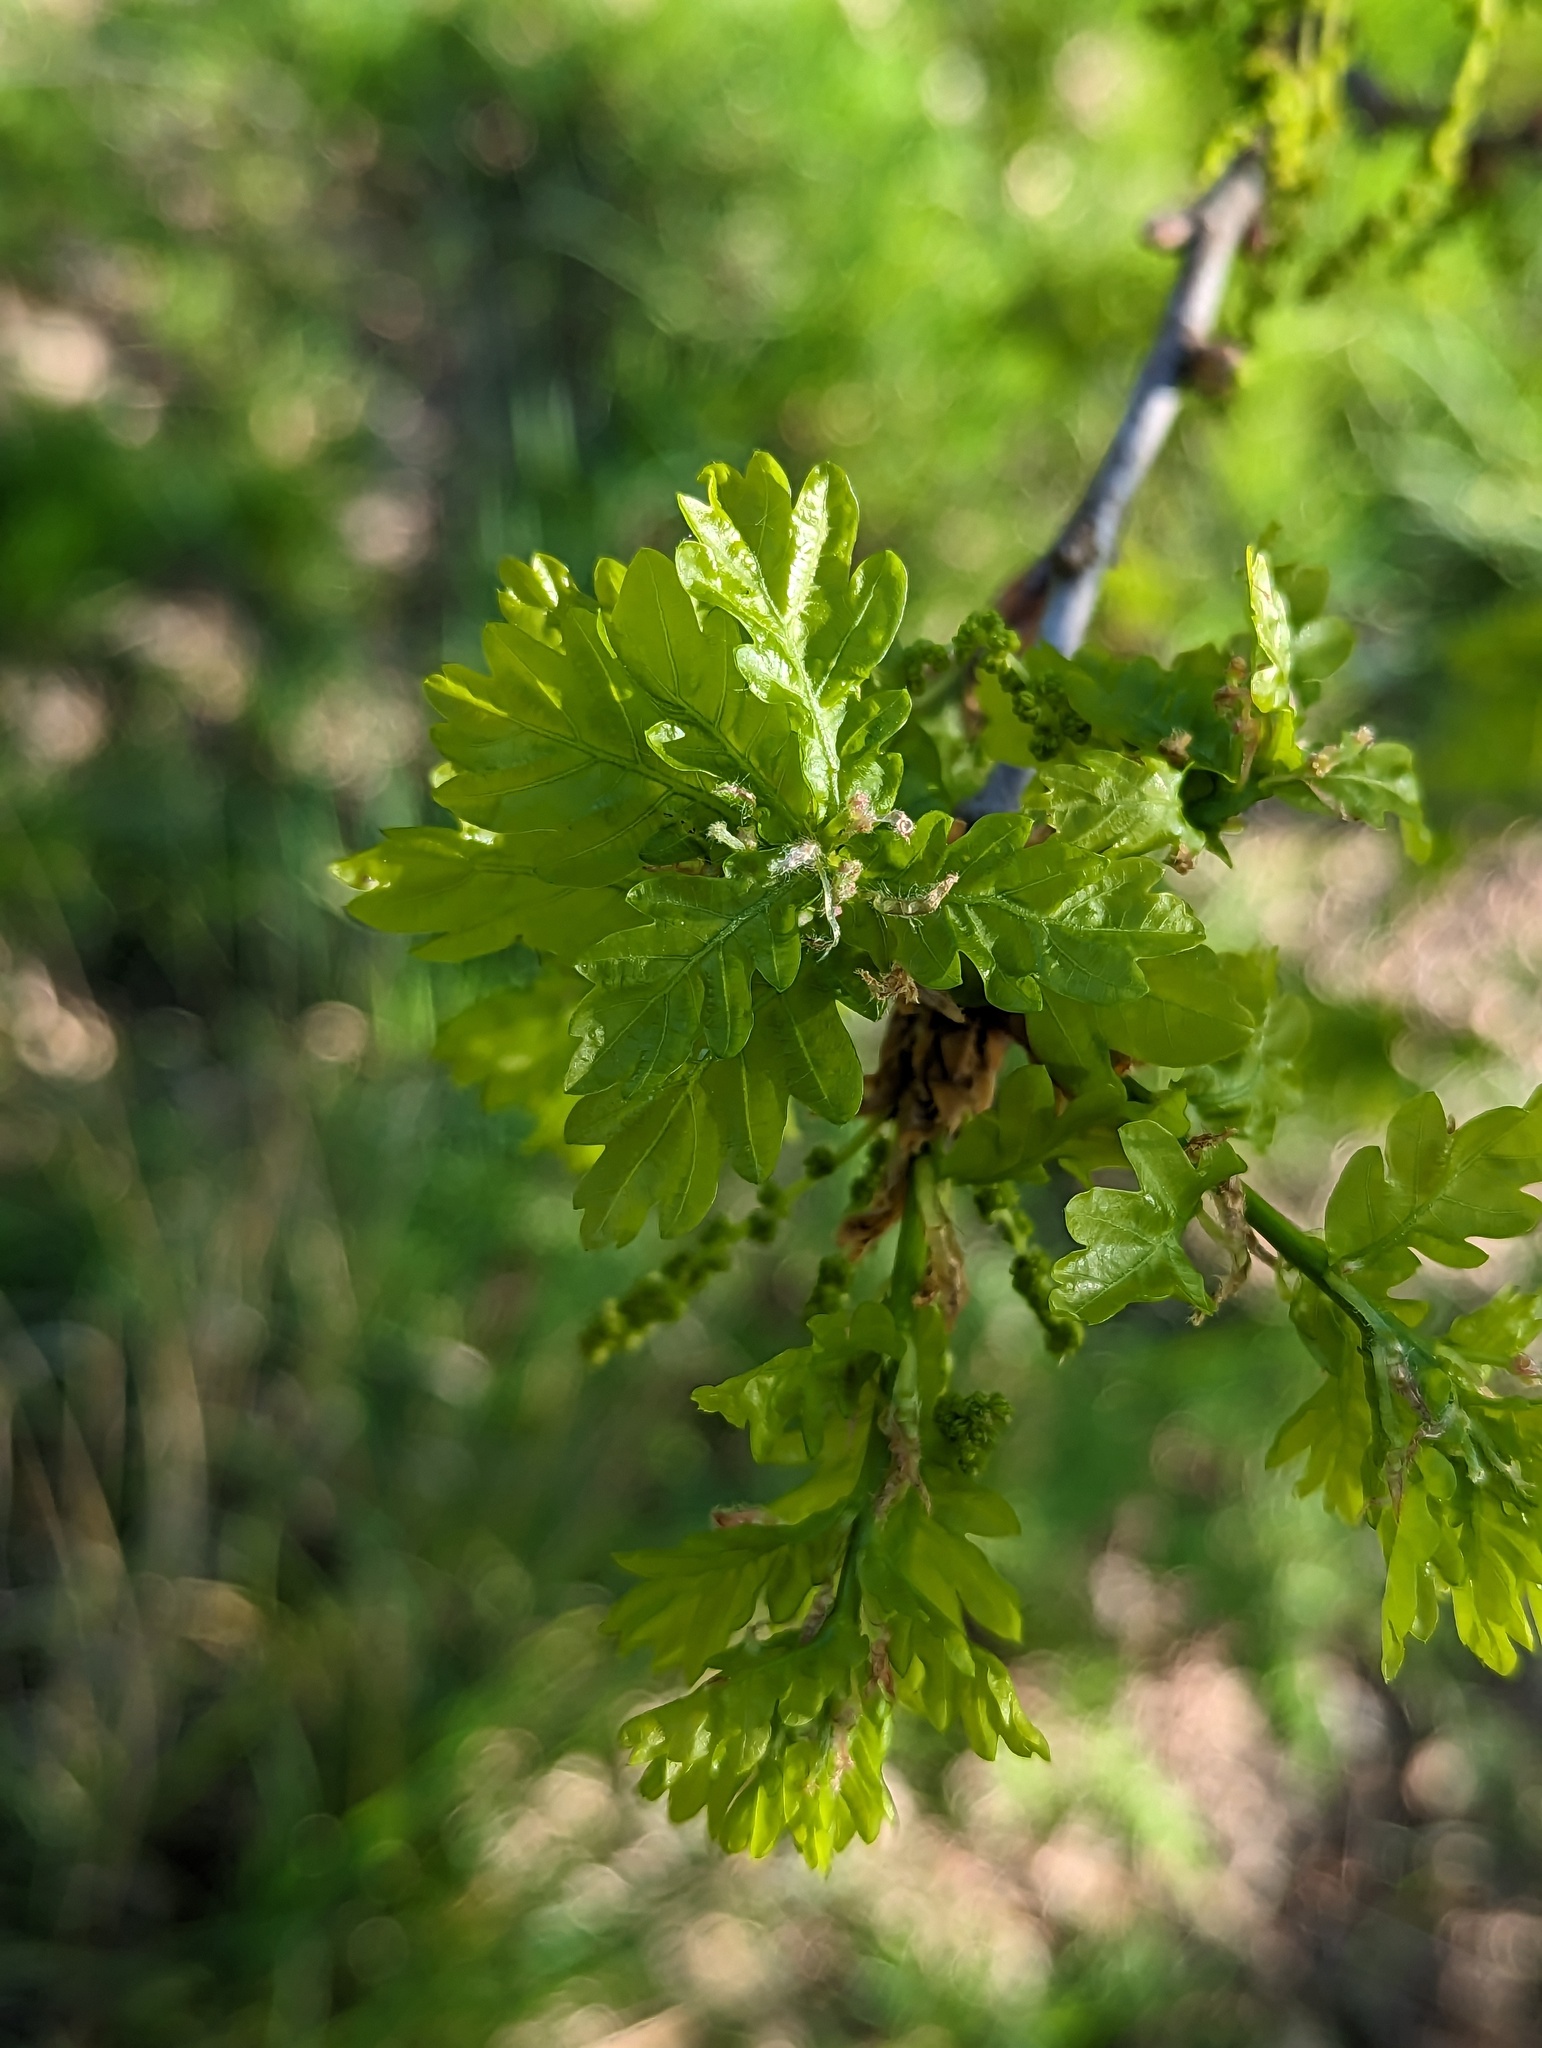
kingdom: Plantae
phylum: Tracheophyta
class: Magnoliopsida
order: Fagales
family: Fagaceae
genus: Quercus
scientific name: Quercus robur
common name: Pedunculate oak
